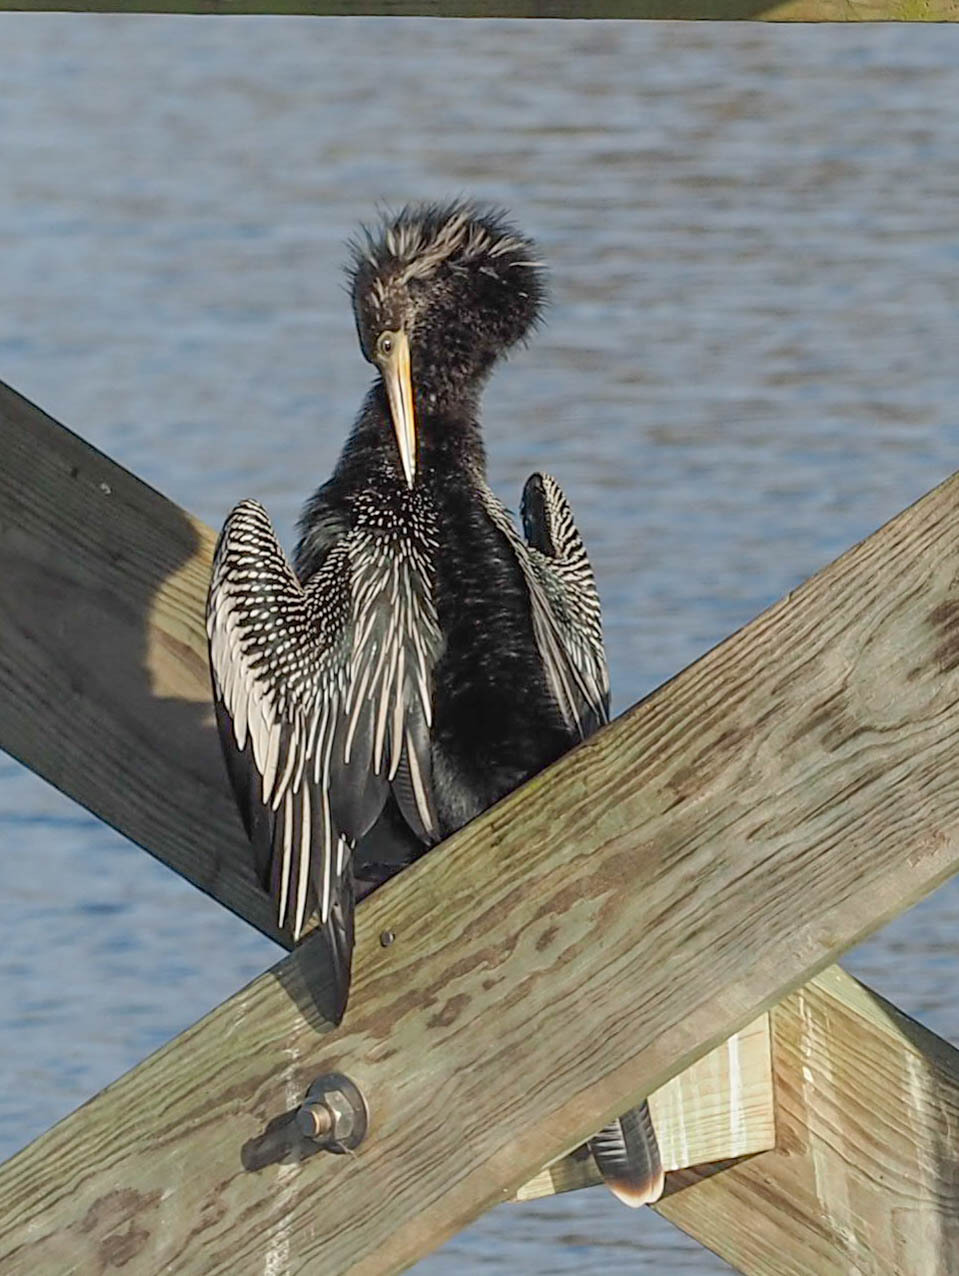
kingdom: Animalia
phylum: Chordata
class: Aves
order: Suliformes
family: Anhingidae
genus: Anhinga
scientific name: Anhinga anhinga
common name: Anhinga
